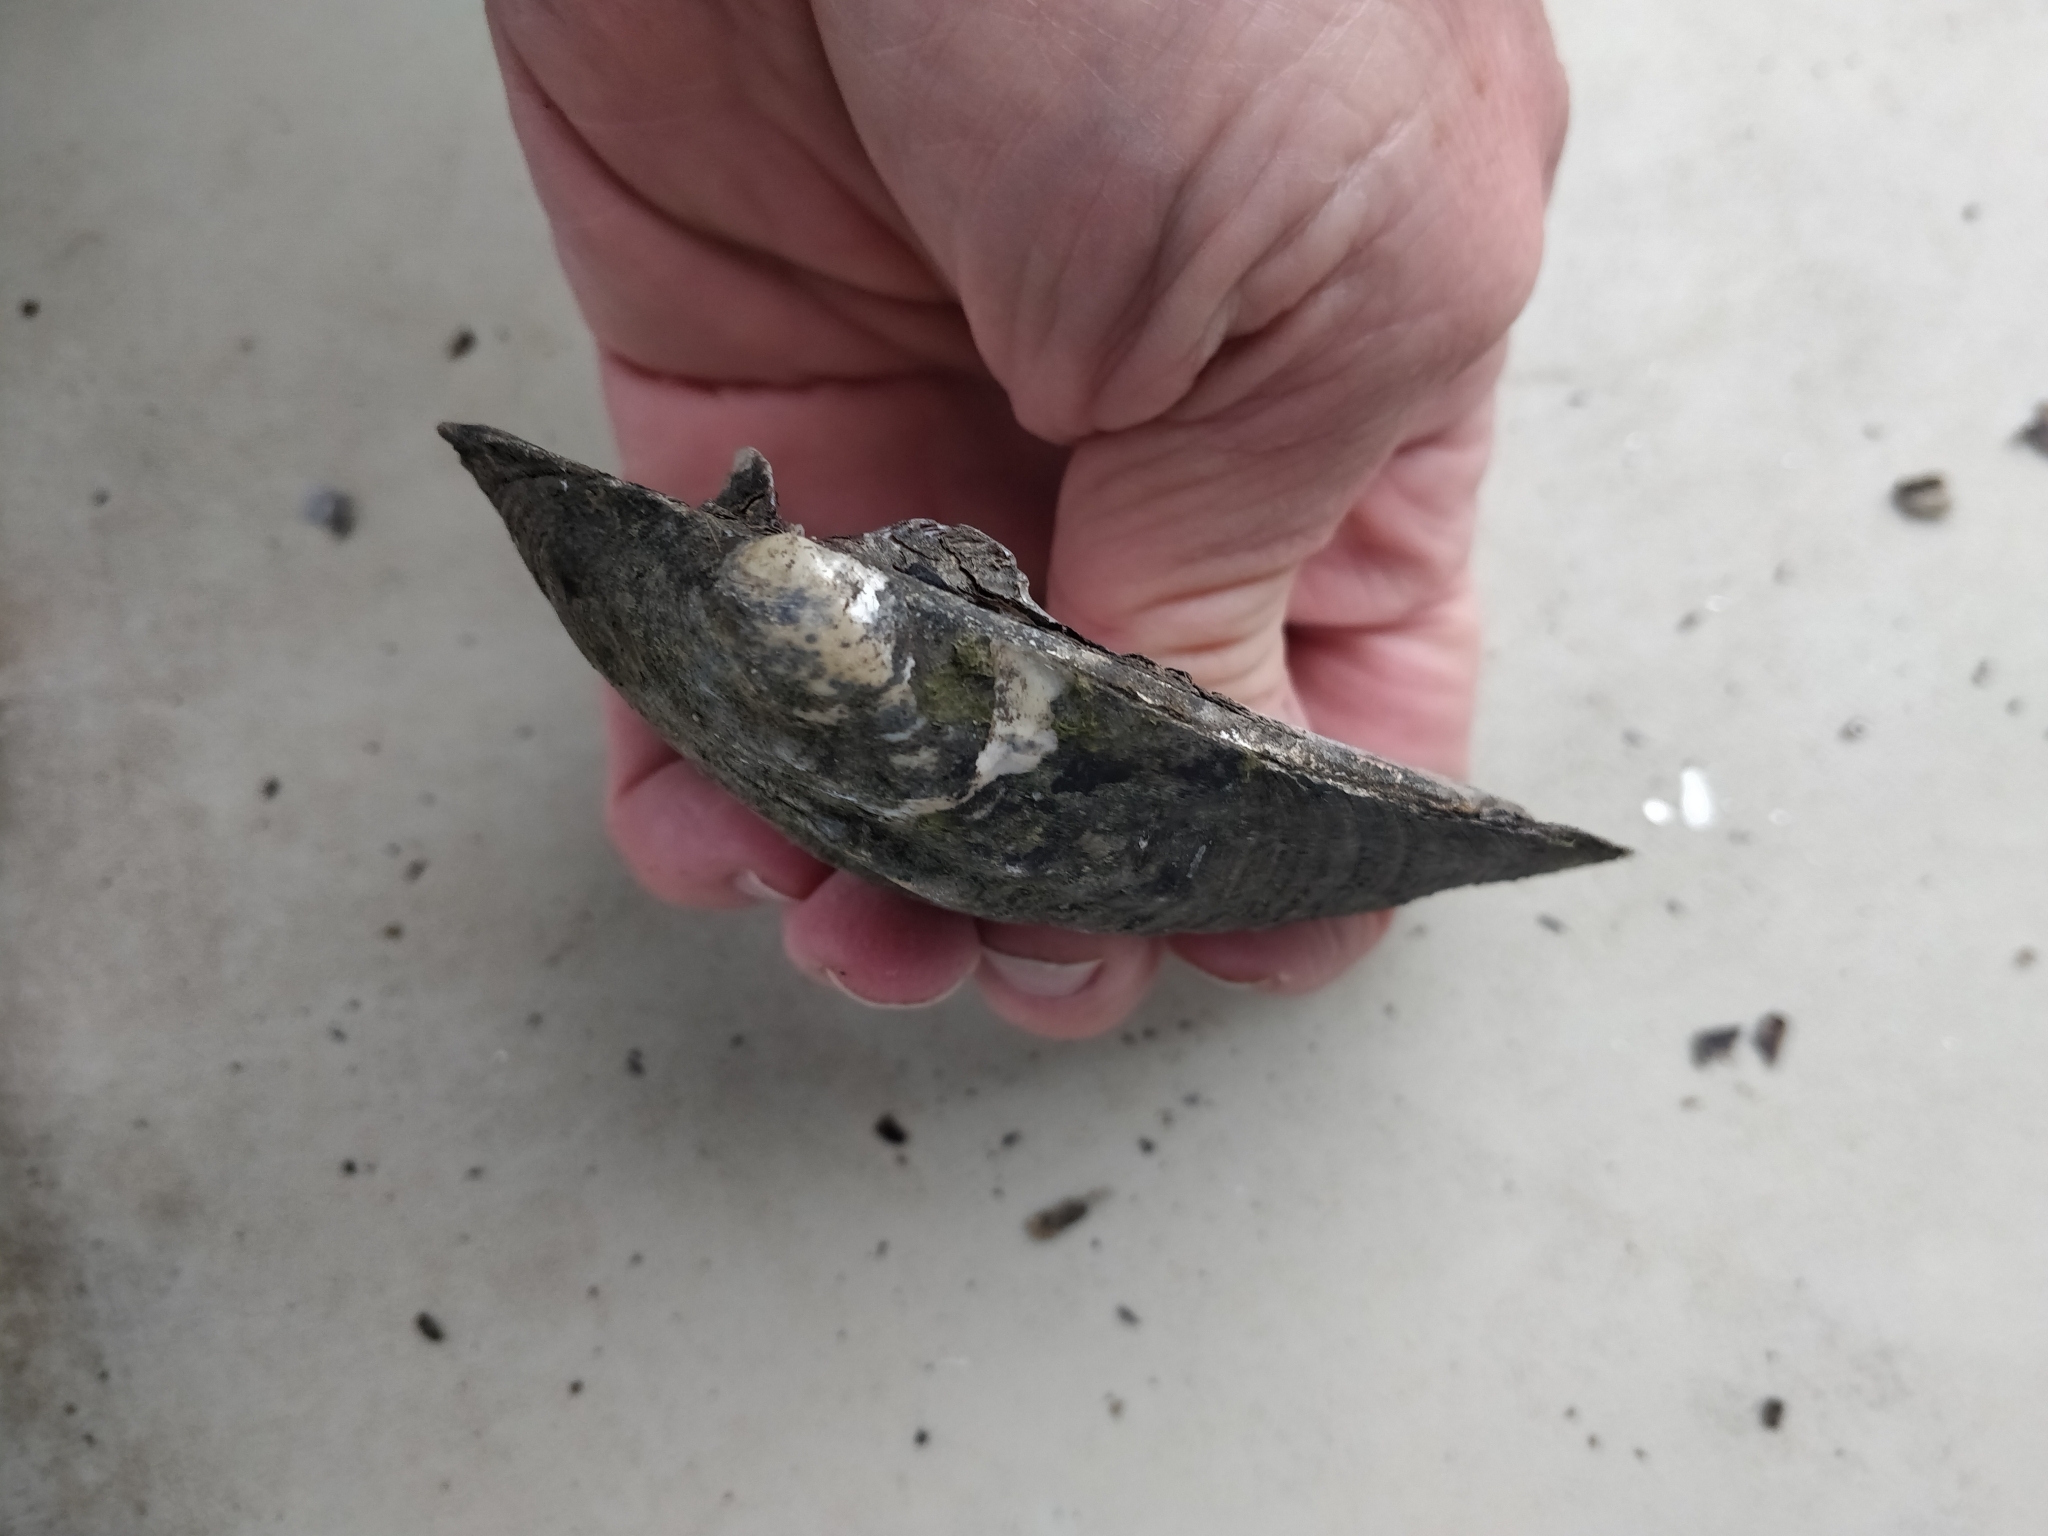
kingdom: Animalia
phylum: Mollusca
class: Bivalvia
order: Unionida
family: Unionidae
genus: Amblema
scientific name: Amblema plicata
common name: Threeridge
